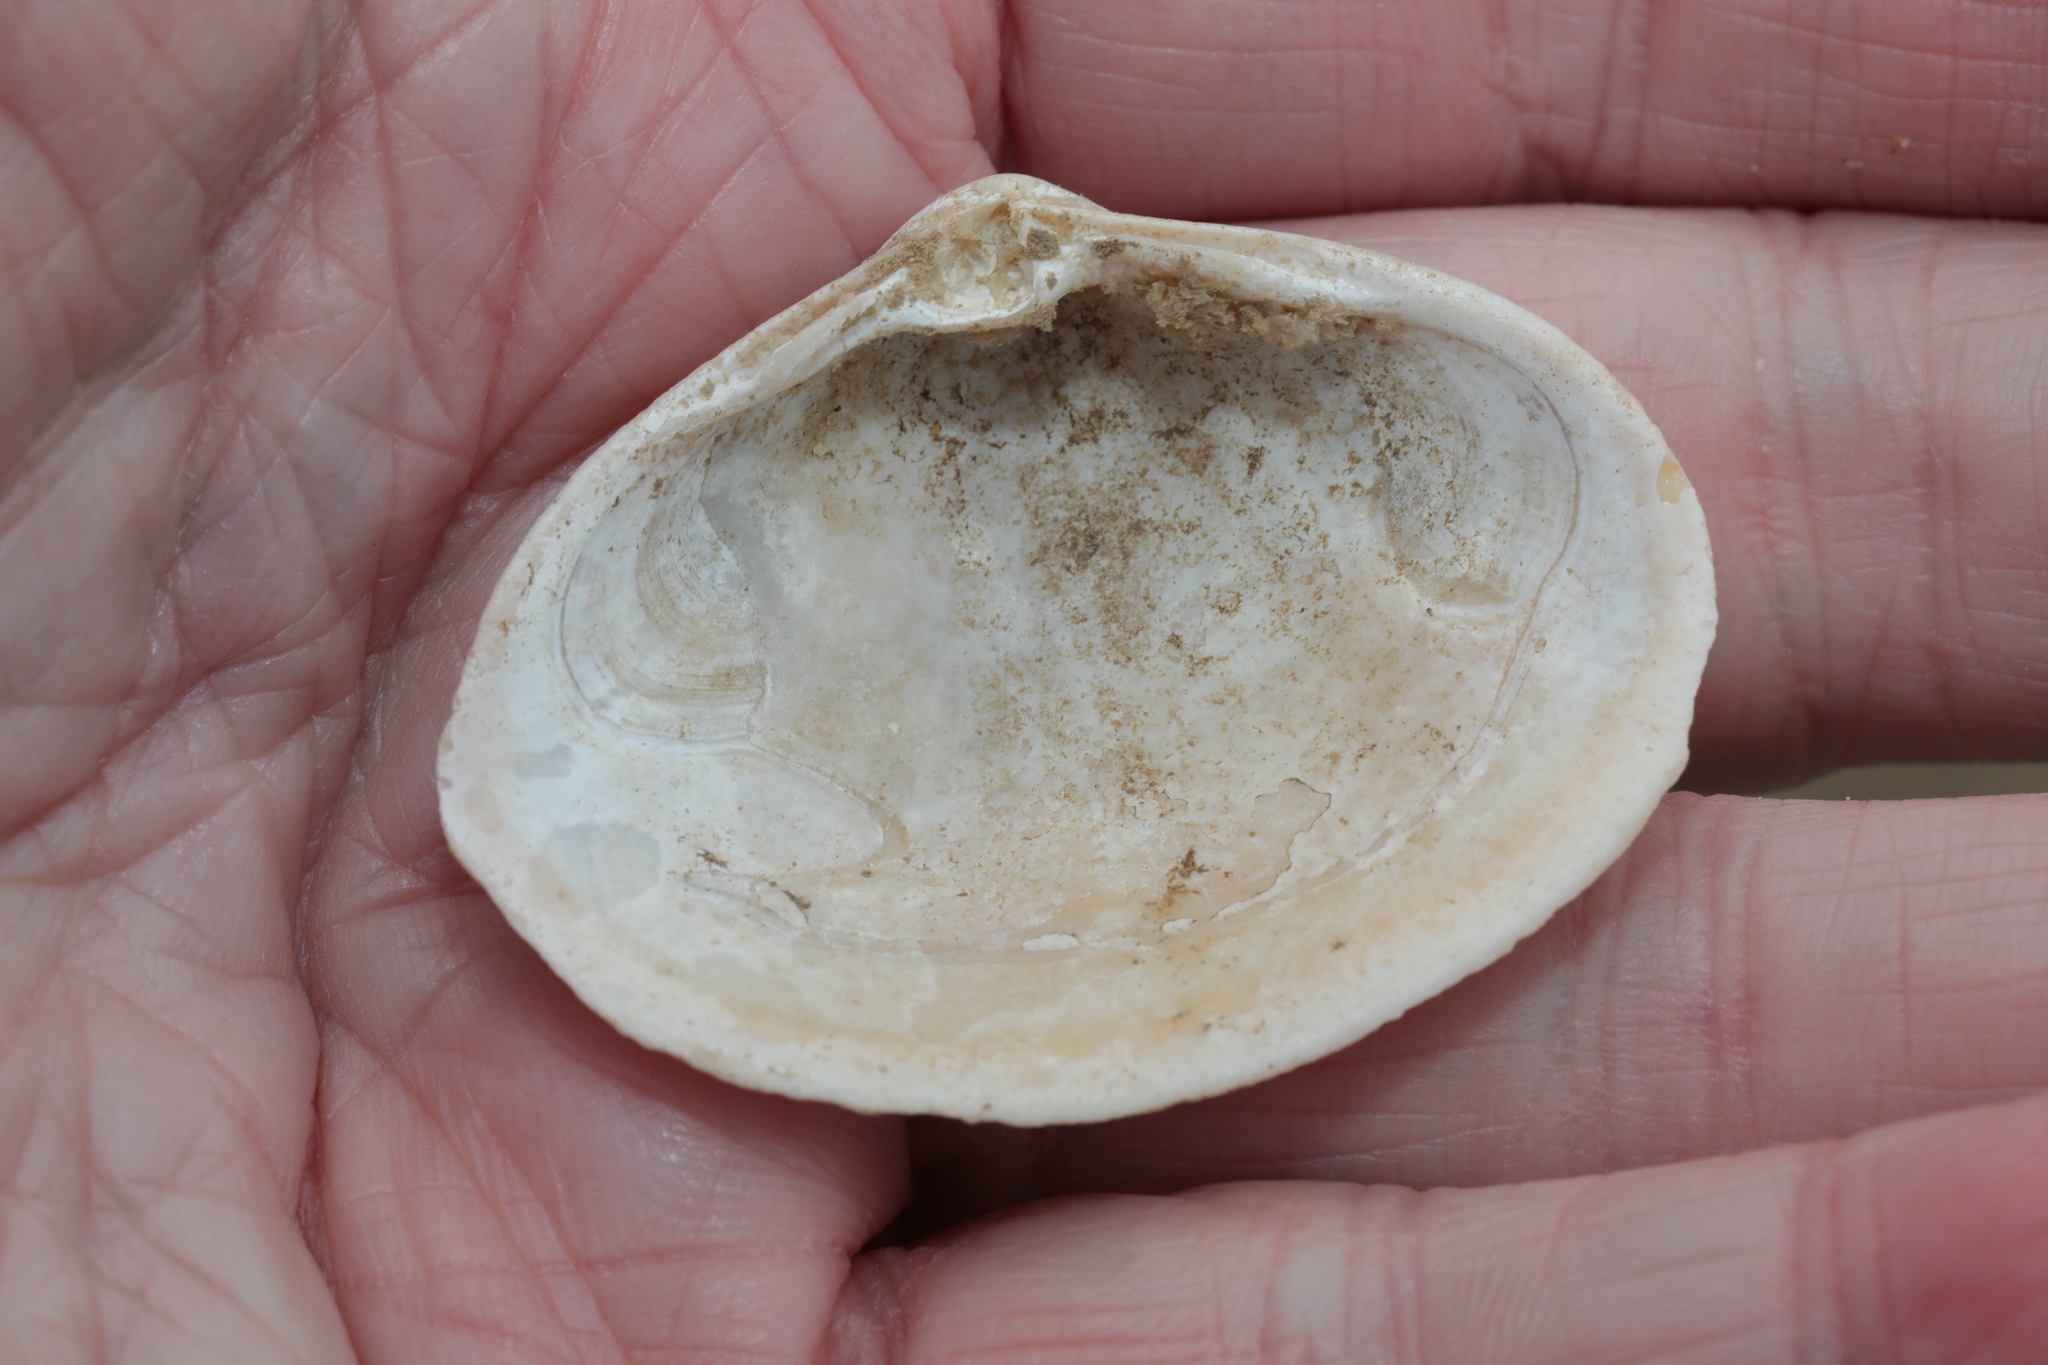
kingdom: Animalia
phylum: Mollusca
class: Bivalvia
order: Venerida
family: Mactridae
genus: Spisula
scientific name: Spisula solida
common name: Thick trough shell
